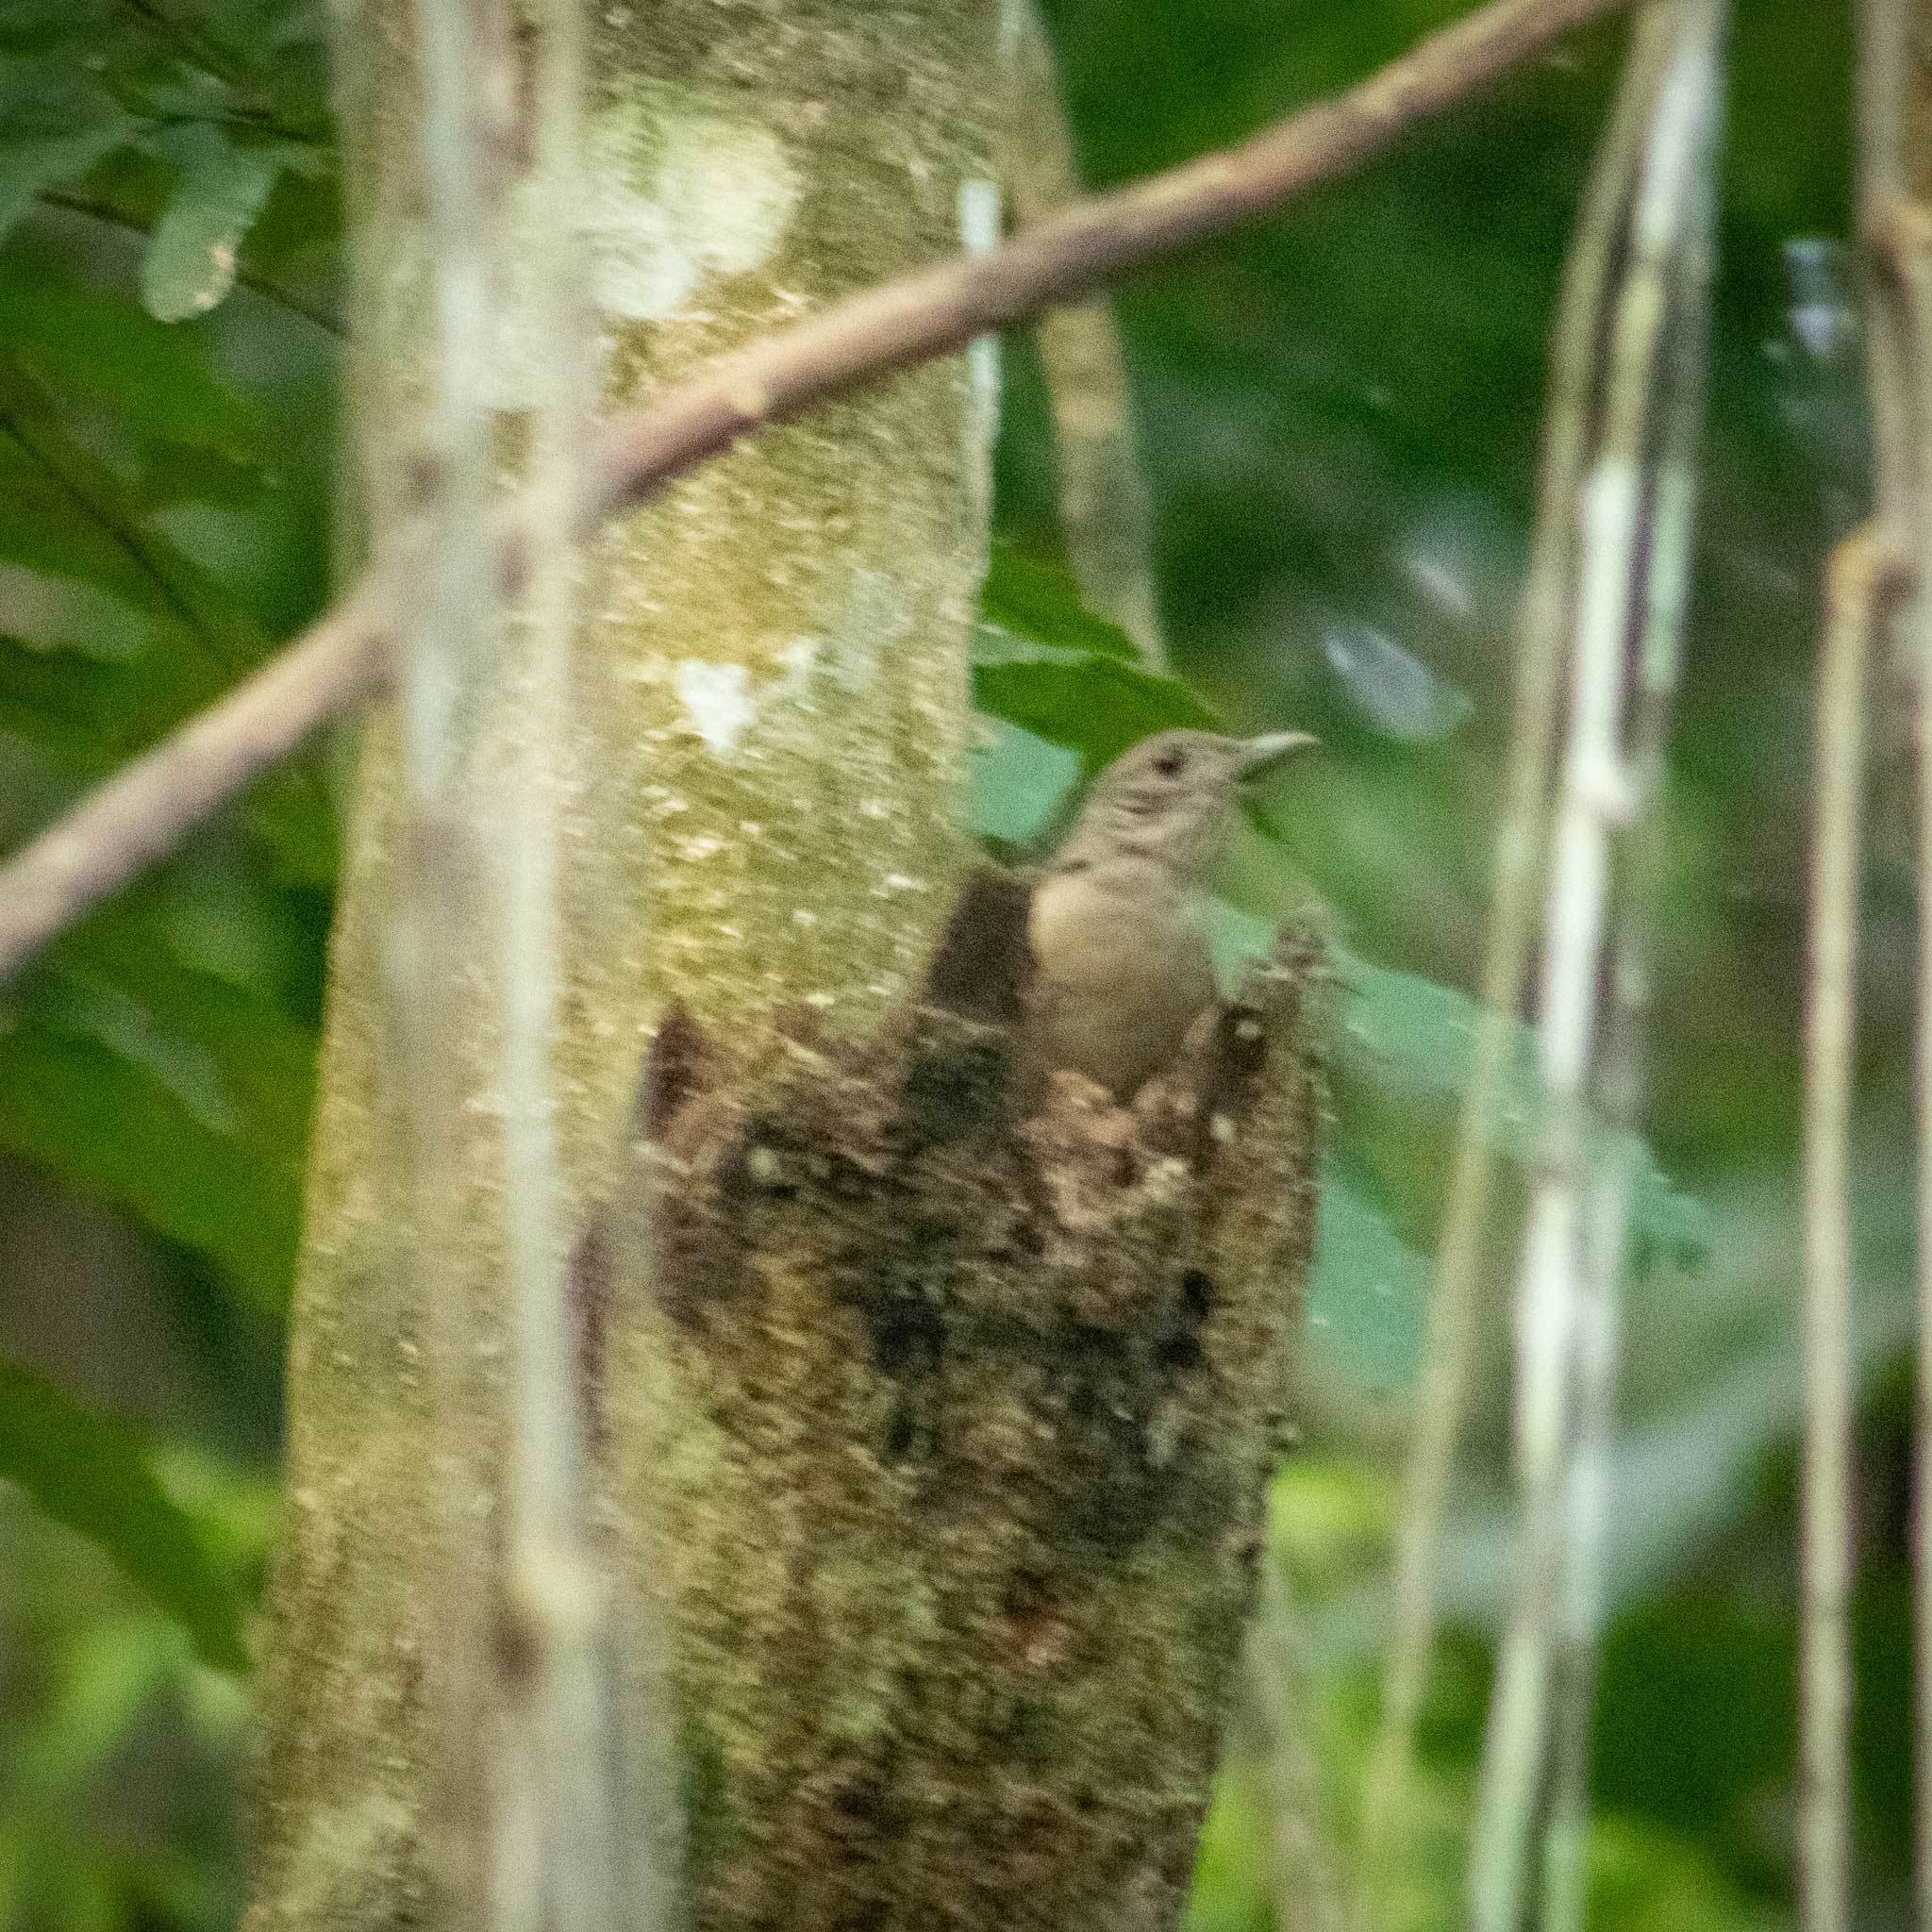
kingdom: Animalia
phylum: Chordata
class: Aves
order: Passeriformes
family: Turdidae
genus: Turdus
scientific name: Turdus leucomelas
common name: Pale-breasted thrush
